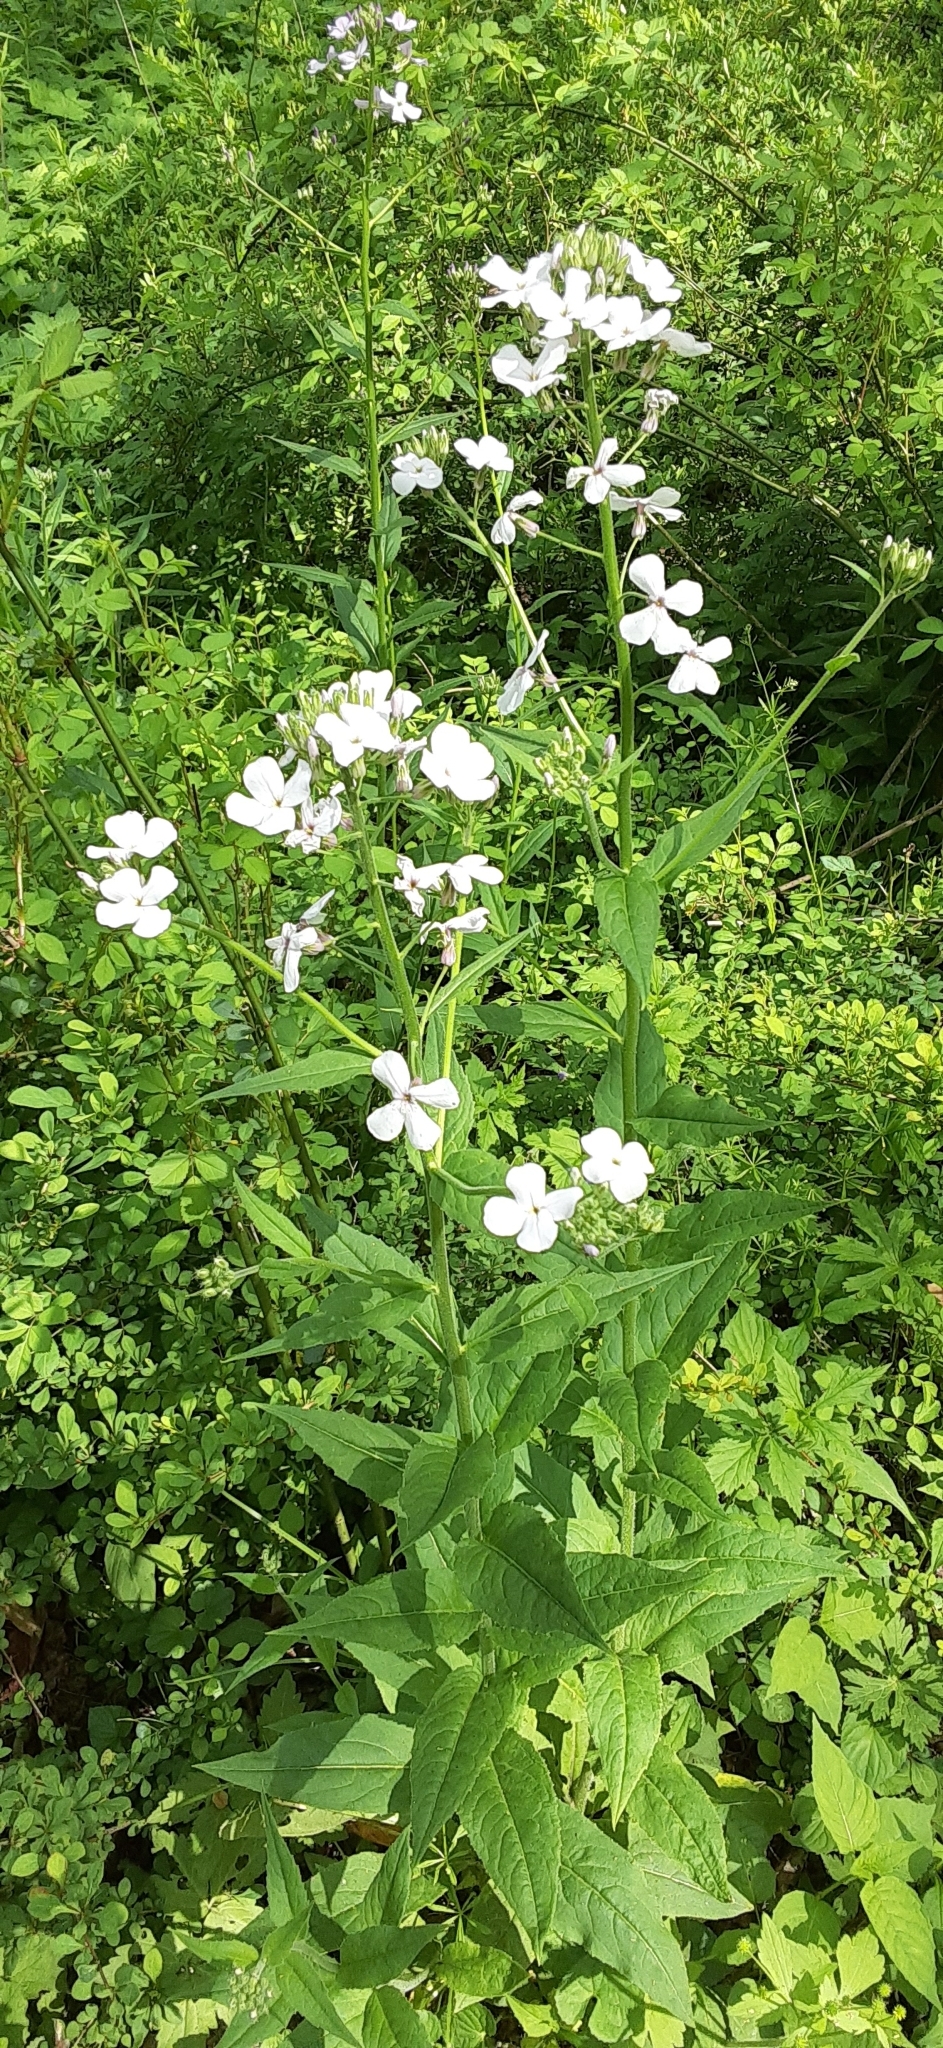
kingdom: Plantae
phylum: Tracheophyta
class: Magnoliopsida
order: Brassicales
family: Brassicaceae
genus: Hesperis
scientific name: Hesperis matronalis
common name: Dame's-violet
